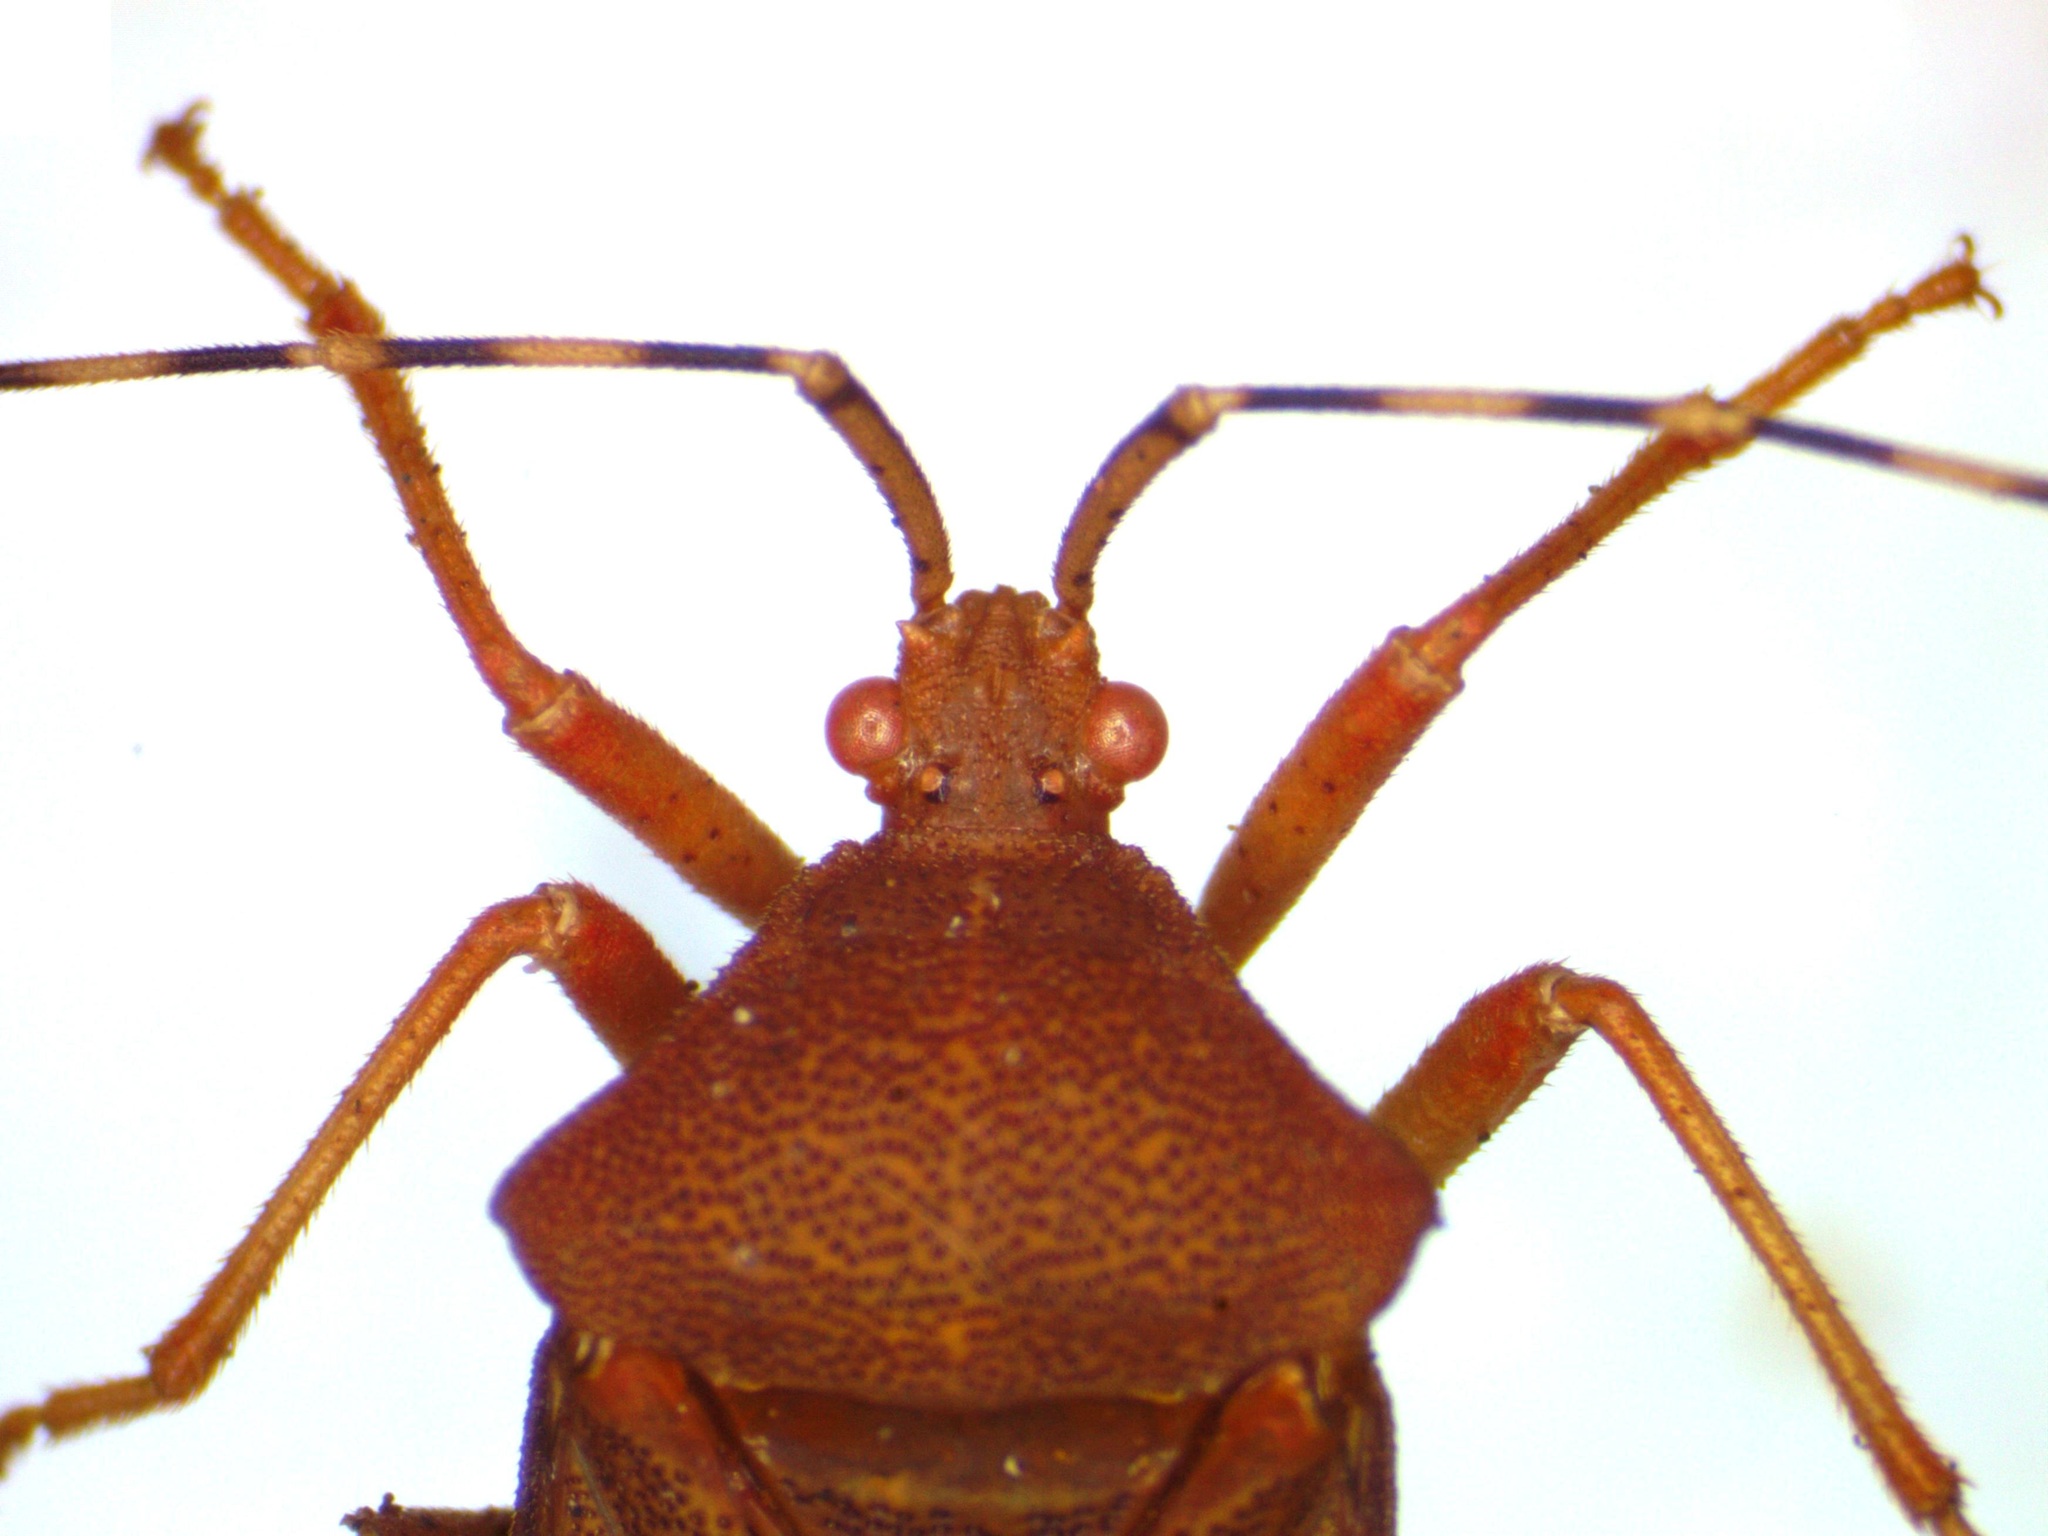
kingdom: Animalia
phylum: Arthropoda
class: Insecta
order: Hemiptera
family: Coreidae
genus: Anasa
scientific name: Anasa bellator
